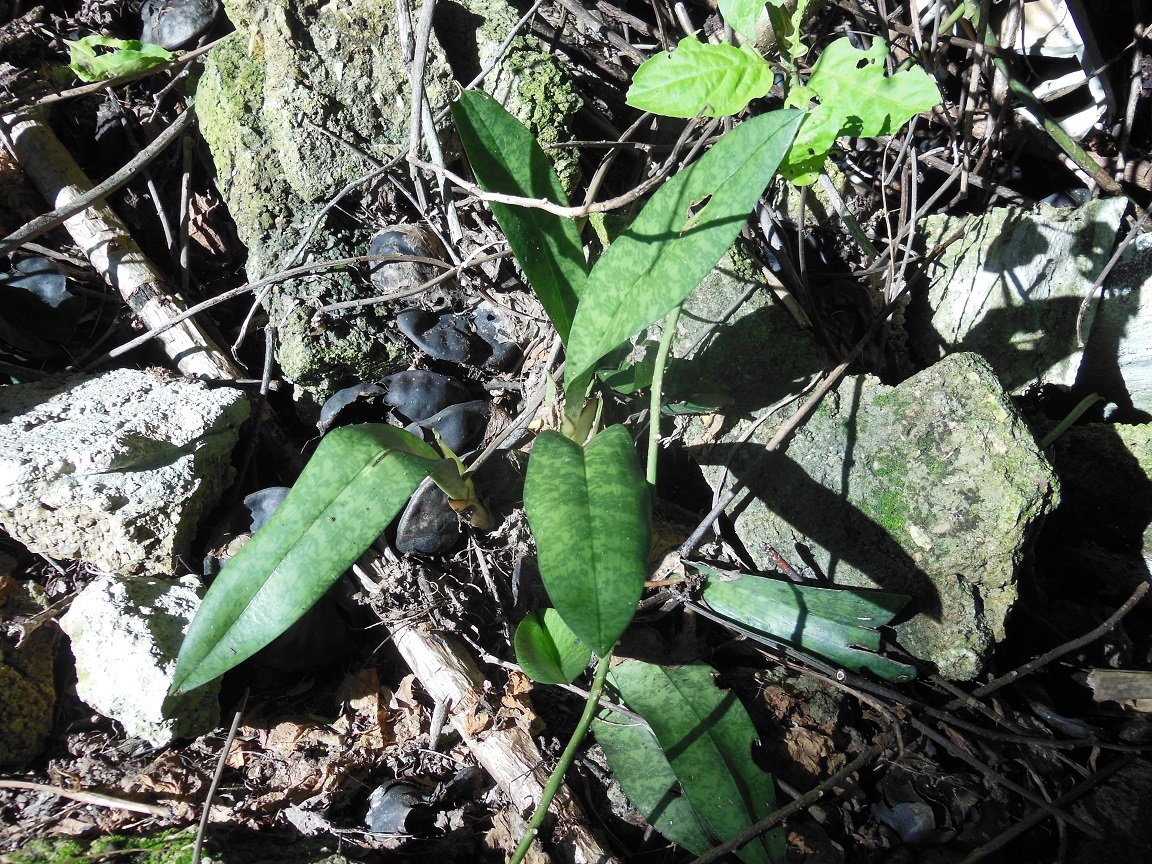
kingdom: Plantae
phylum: Tracheophyta
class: Liliopsida
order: Asparagales
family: Orchidaceae
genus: Eulophia
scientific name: Eulophia maculata
